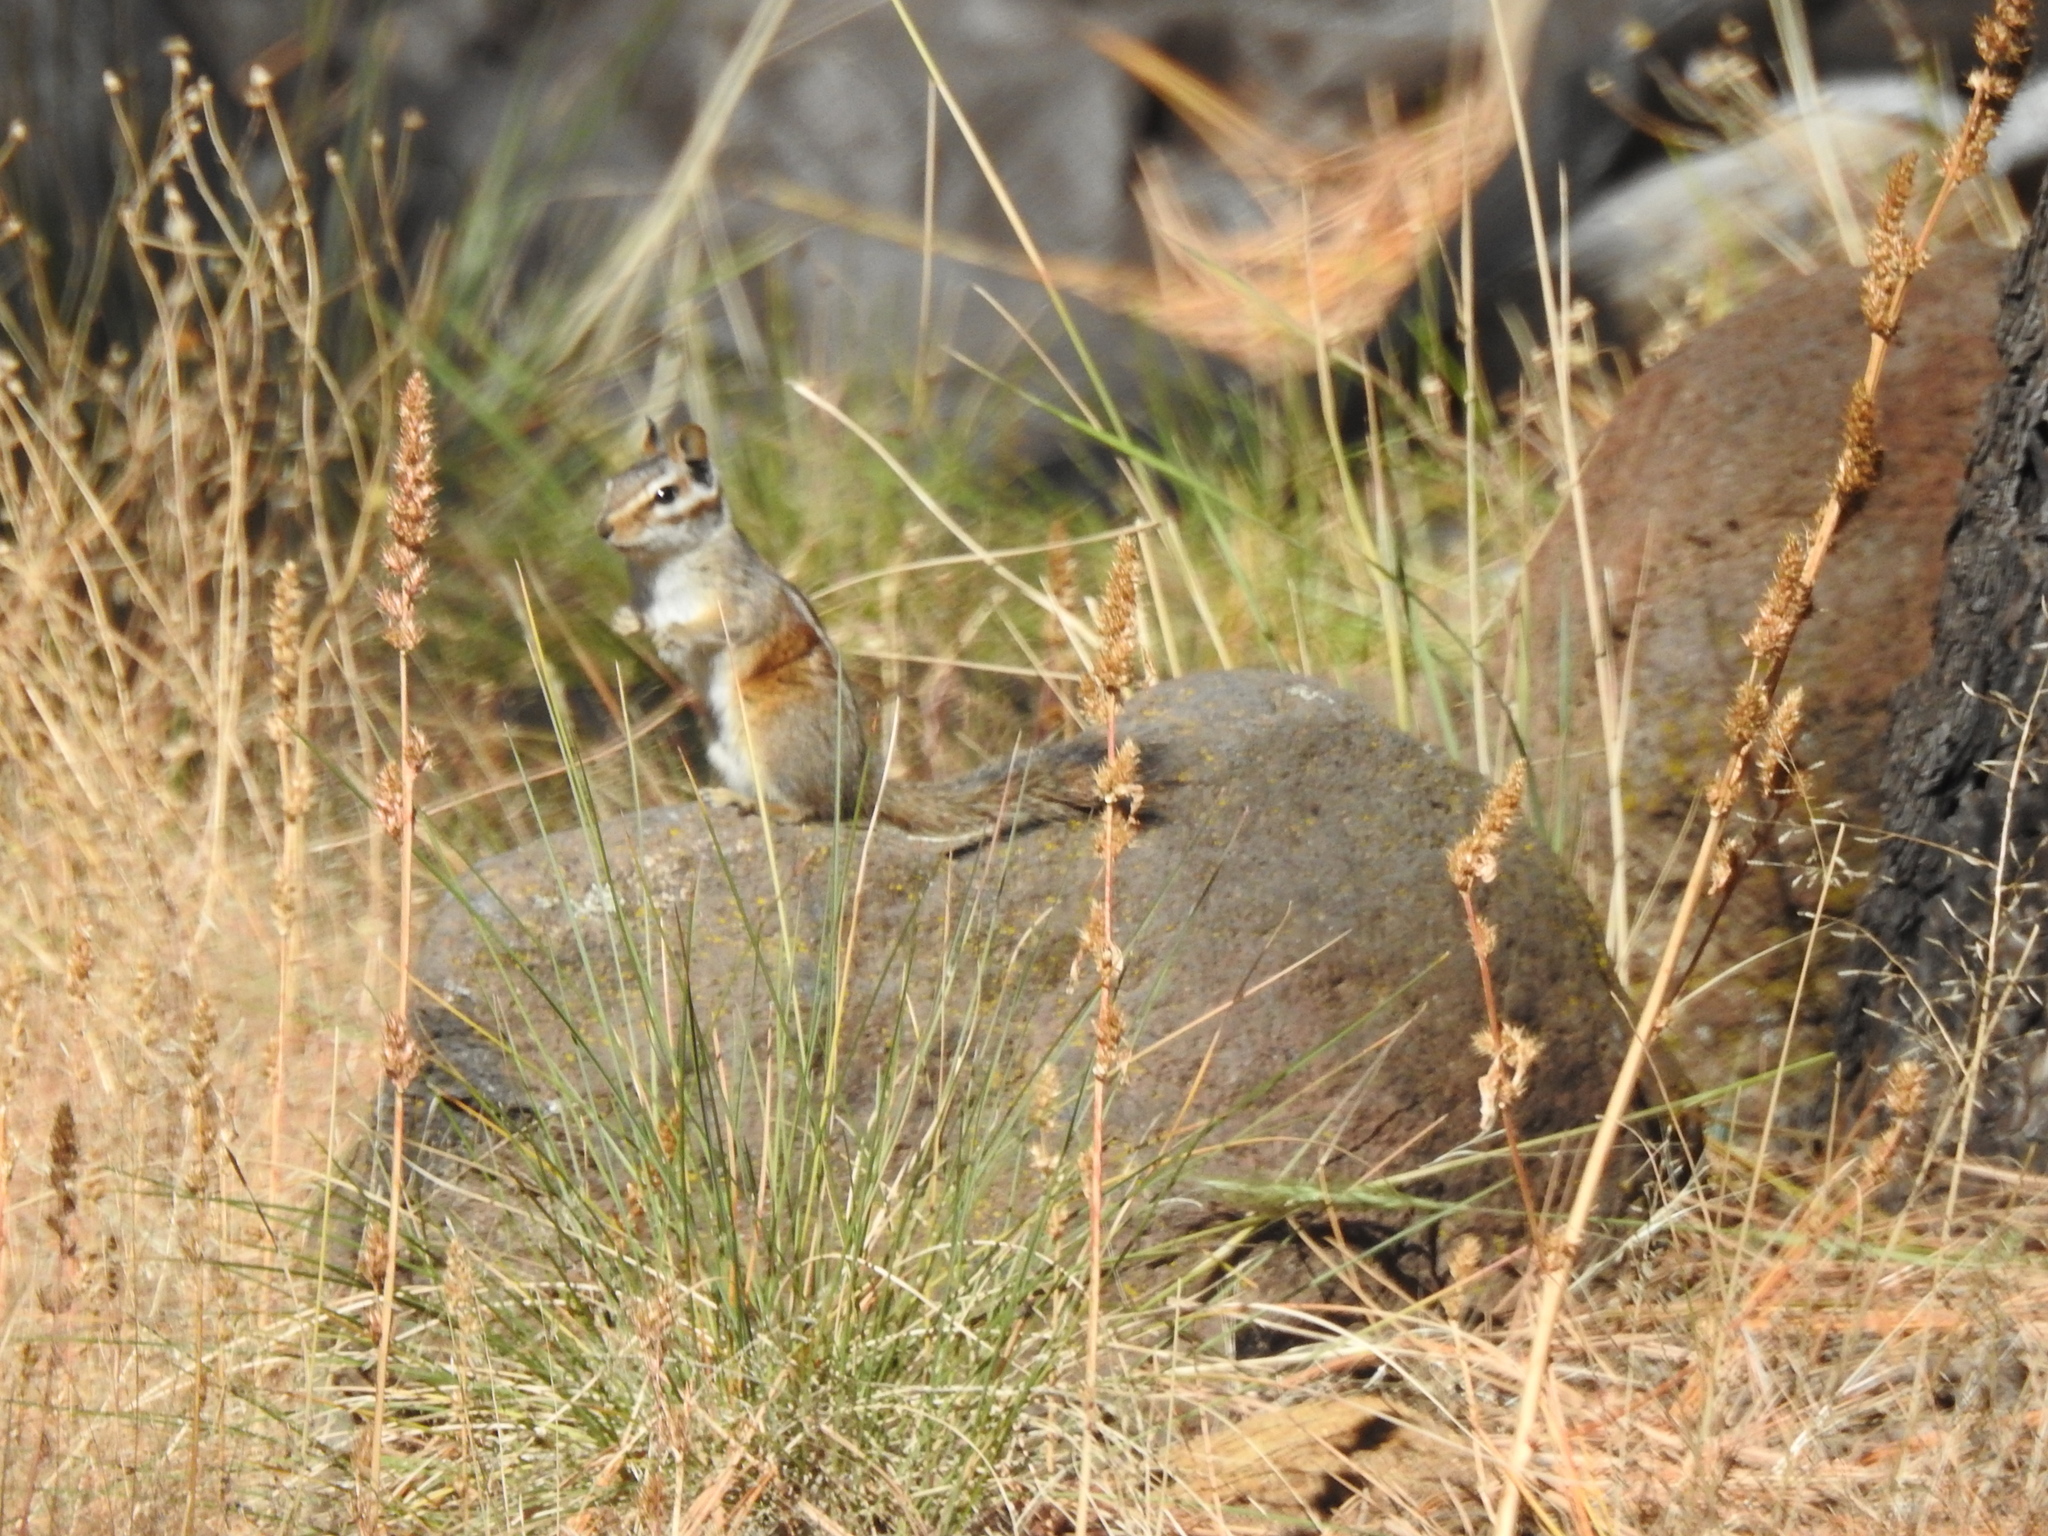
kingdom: Animalia
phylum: Chordata
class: Mammalia
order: Rodentia
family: Sciuridae
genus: Tamias
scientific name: Tamias cinereicollis
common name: Gray-collared chipmunk
